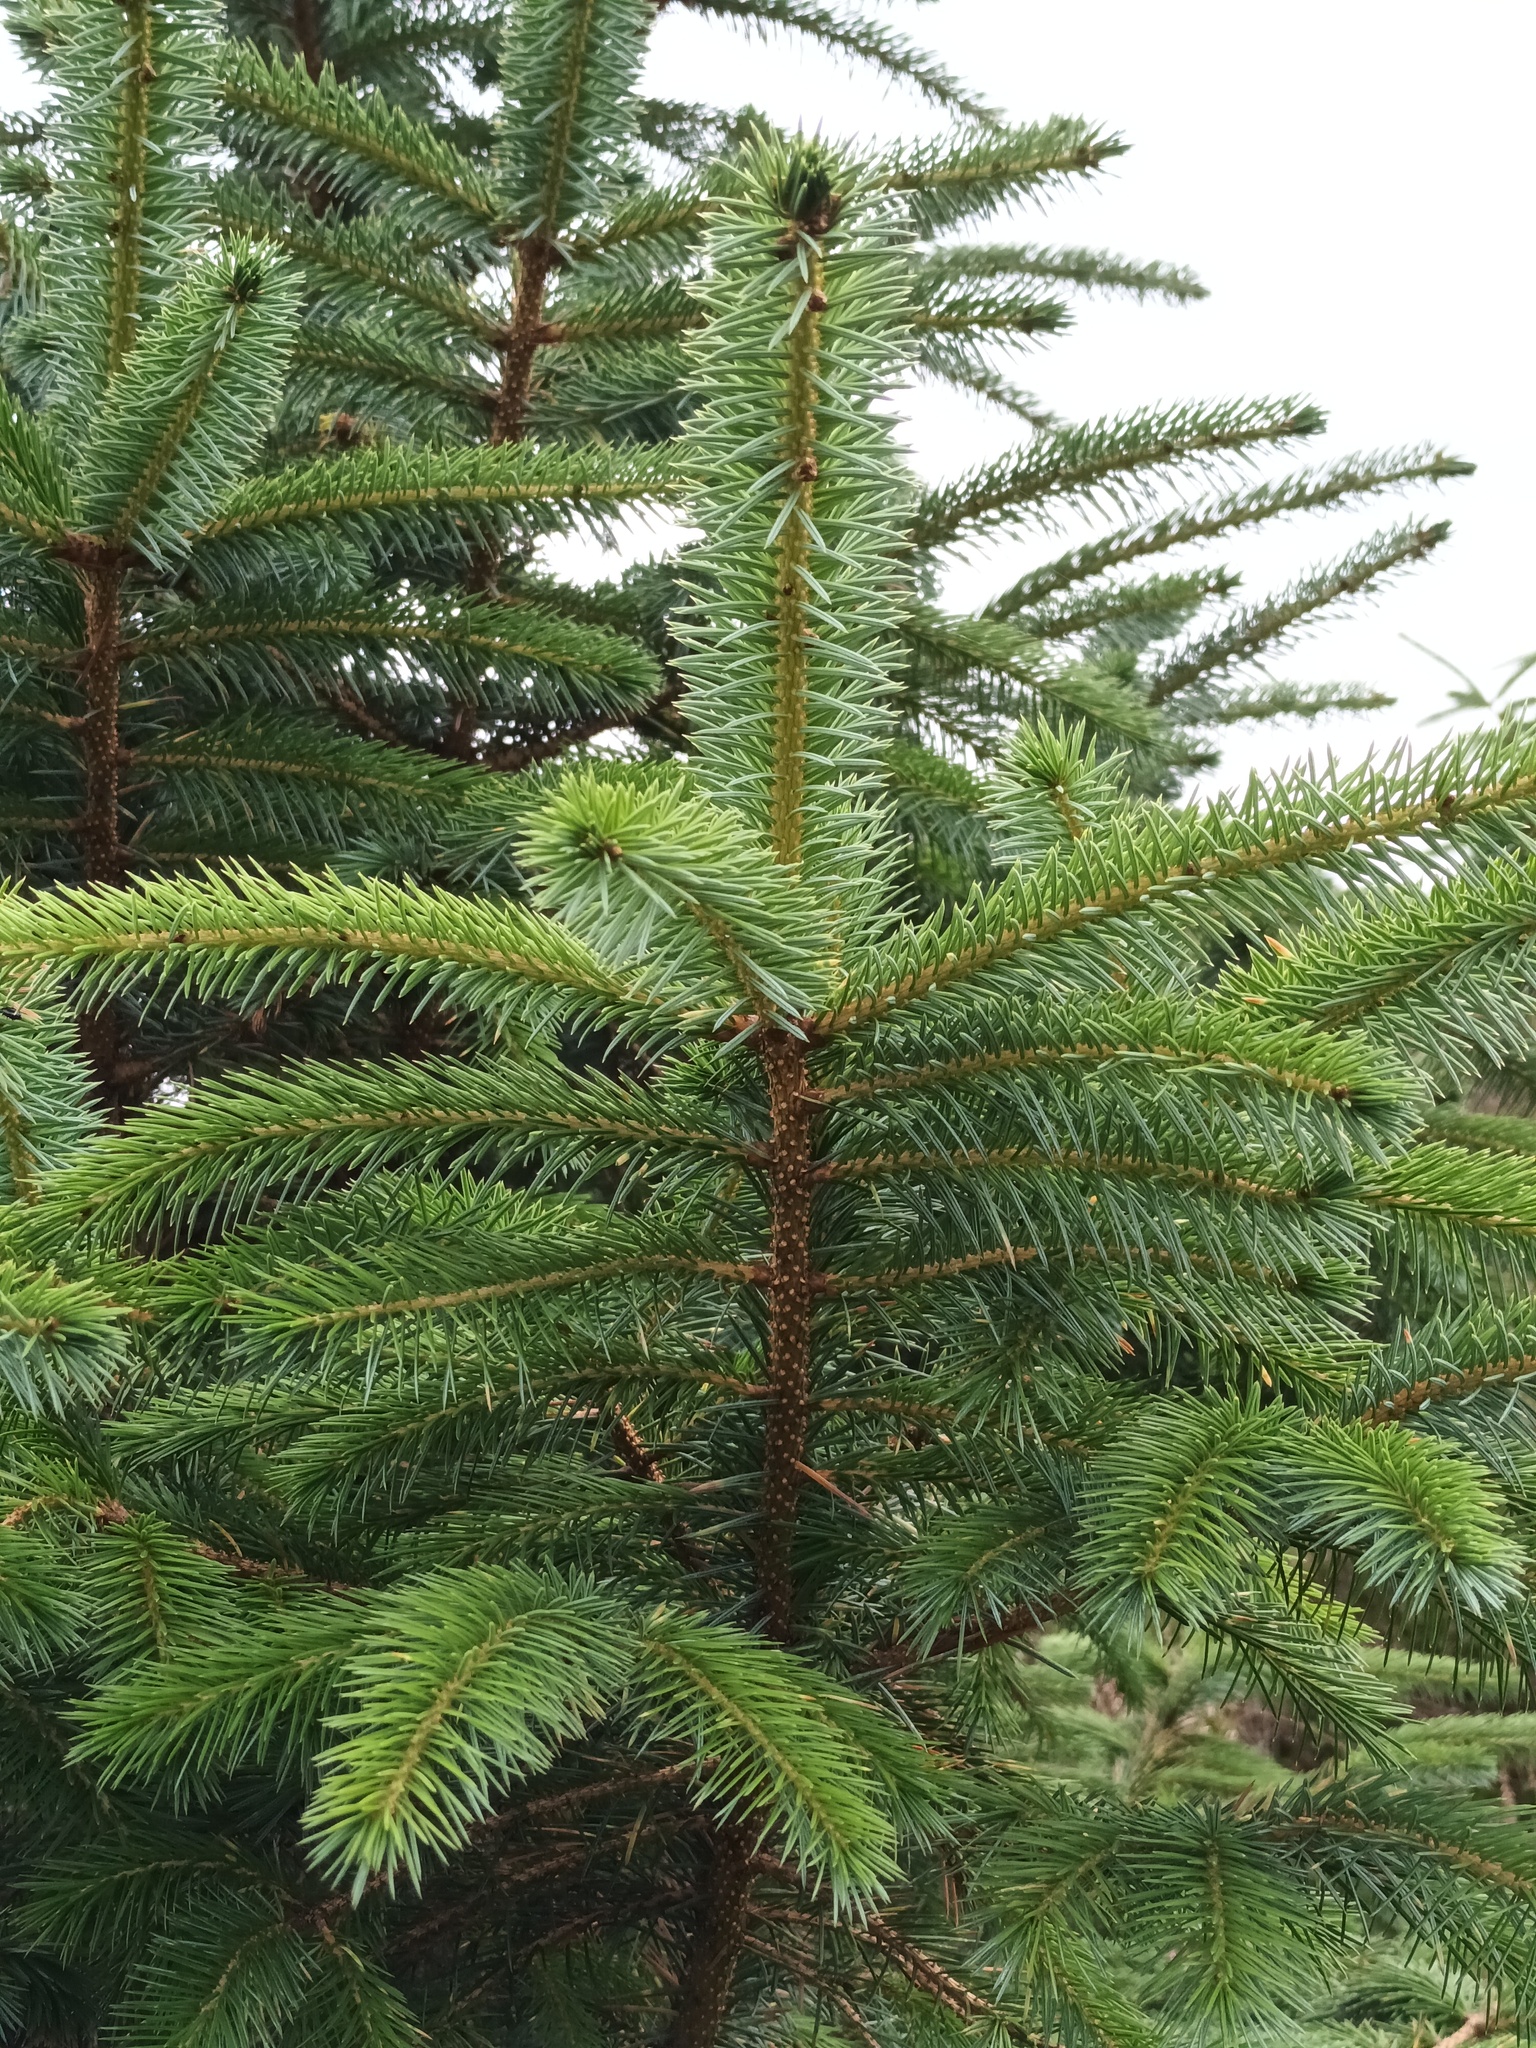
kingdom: Plantae
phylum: Tracheophyta
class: Pinopsida
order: Pinales
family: Pinaceae
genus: Picea
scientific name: Picea sitchensis
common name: Sitka spruce
